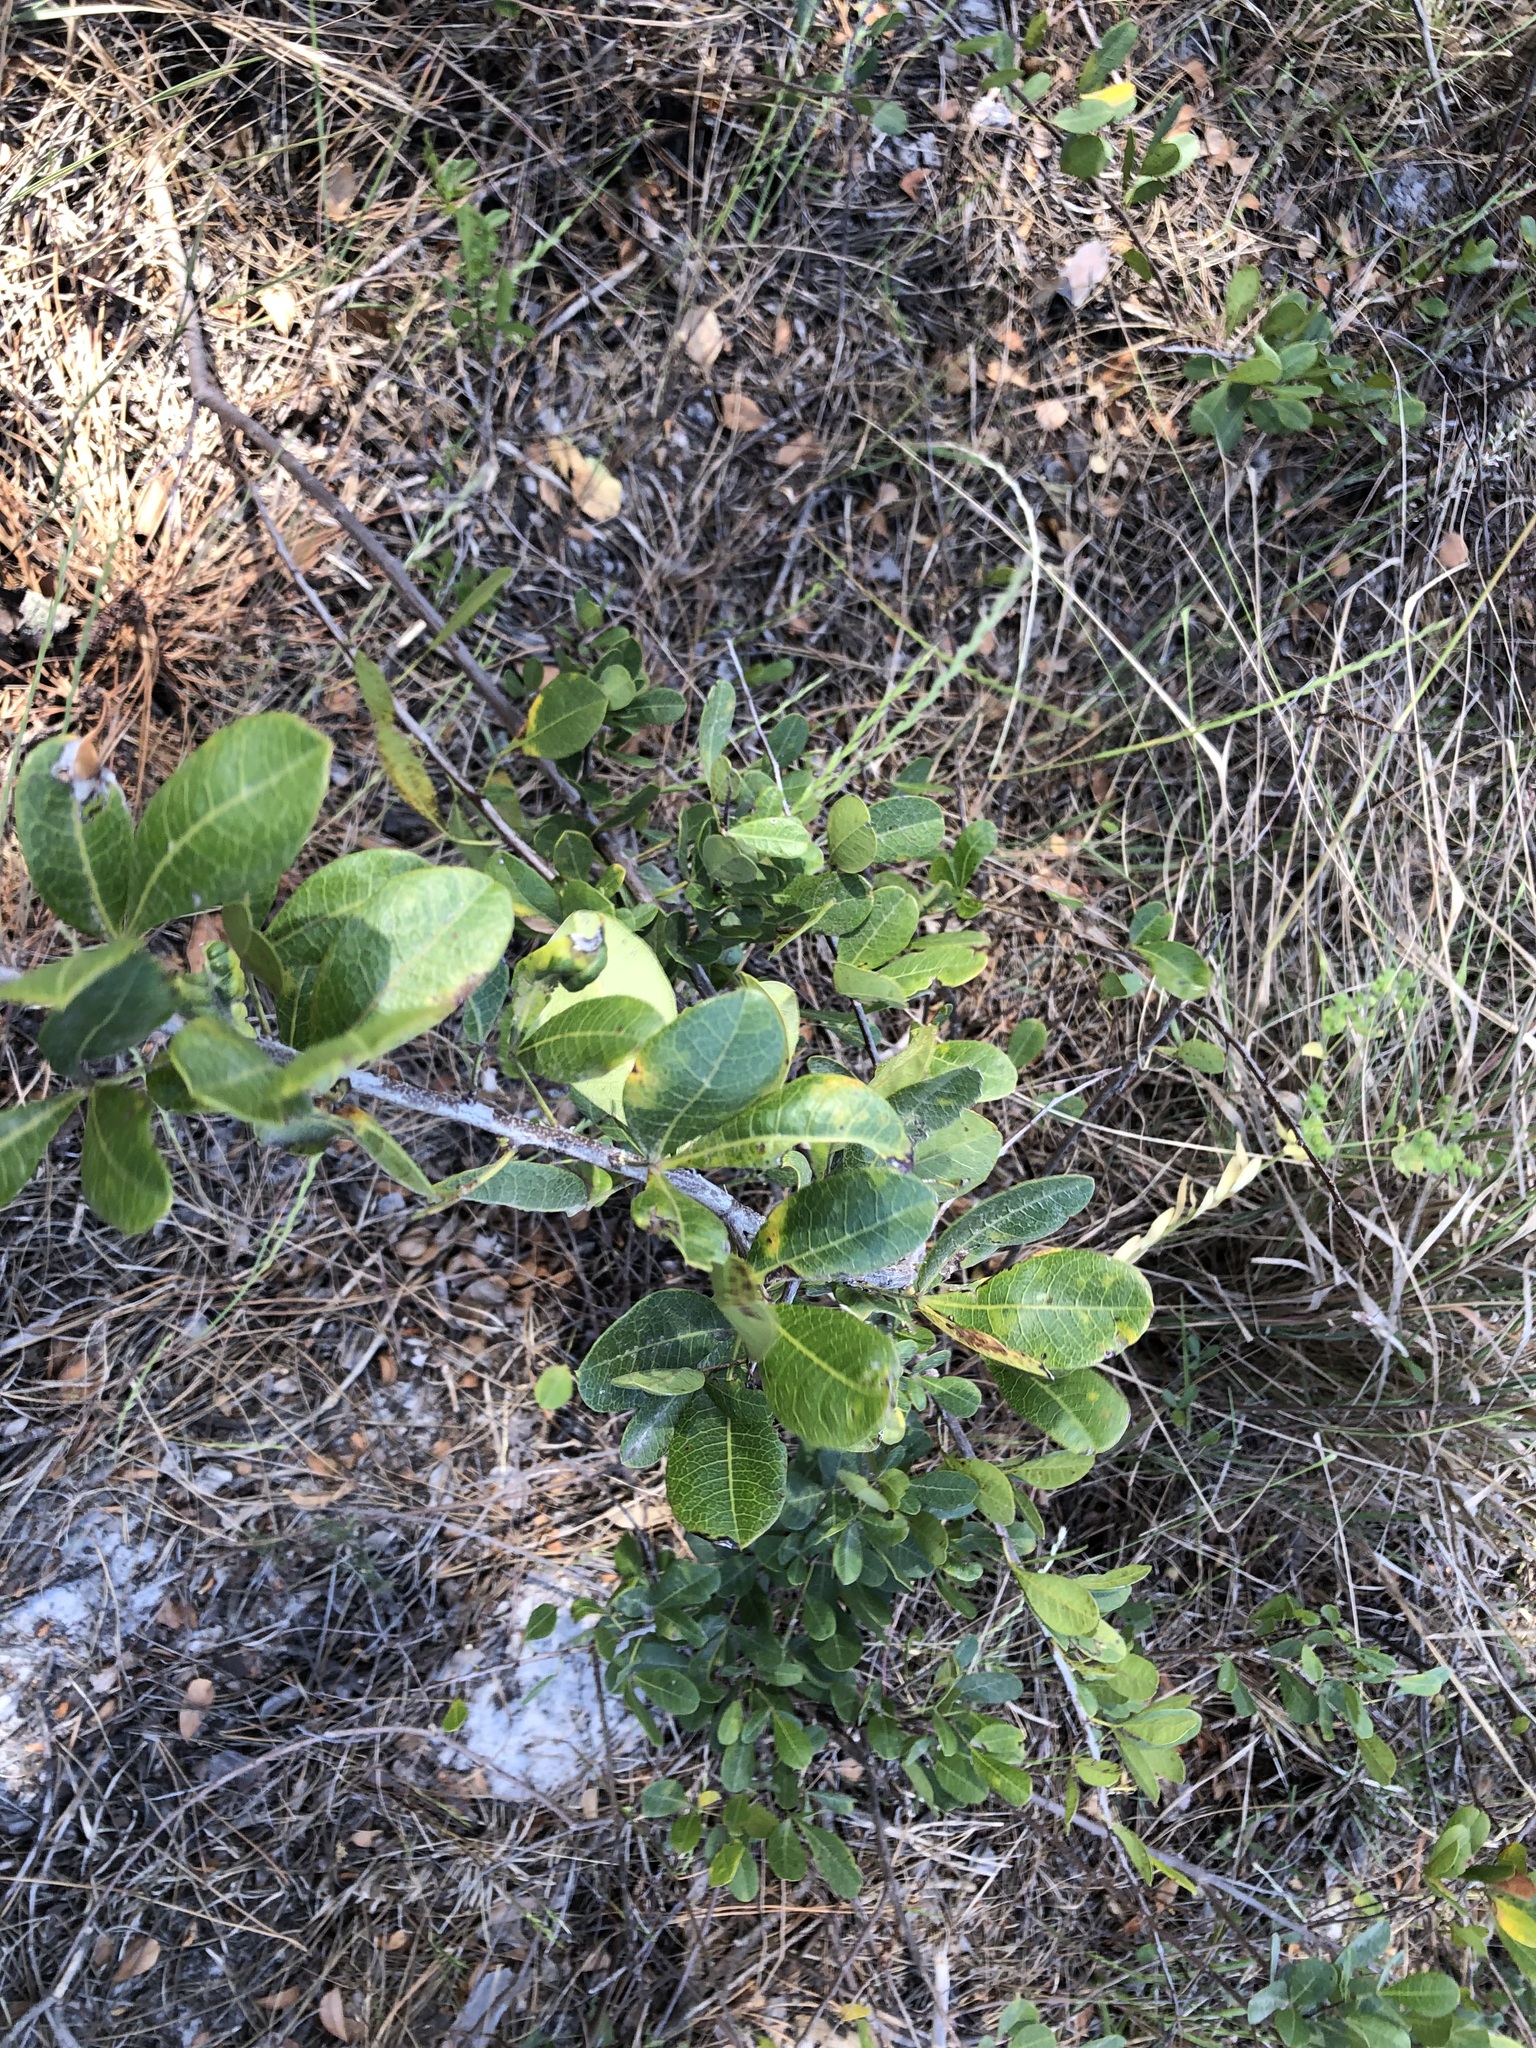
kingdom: Plantae
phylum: Tracheophyta
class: Magnoliopsida
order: Sapindales
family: Anacardiaceae
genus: Searsia
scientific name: Searsia laevigata
